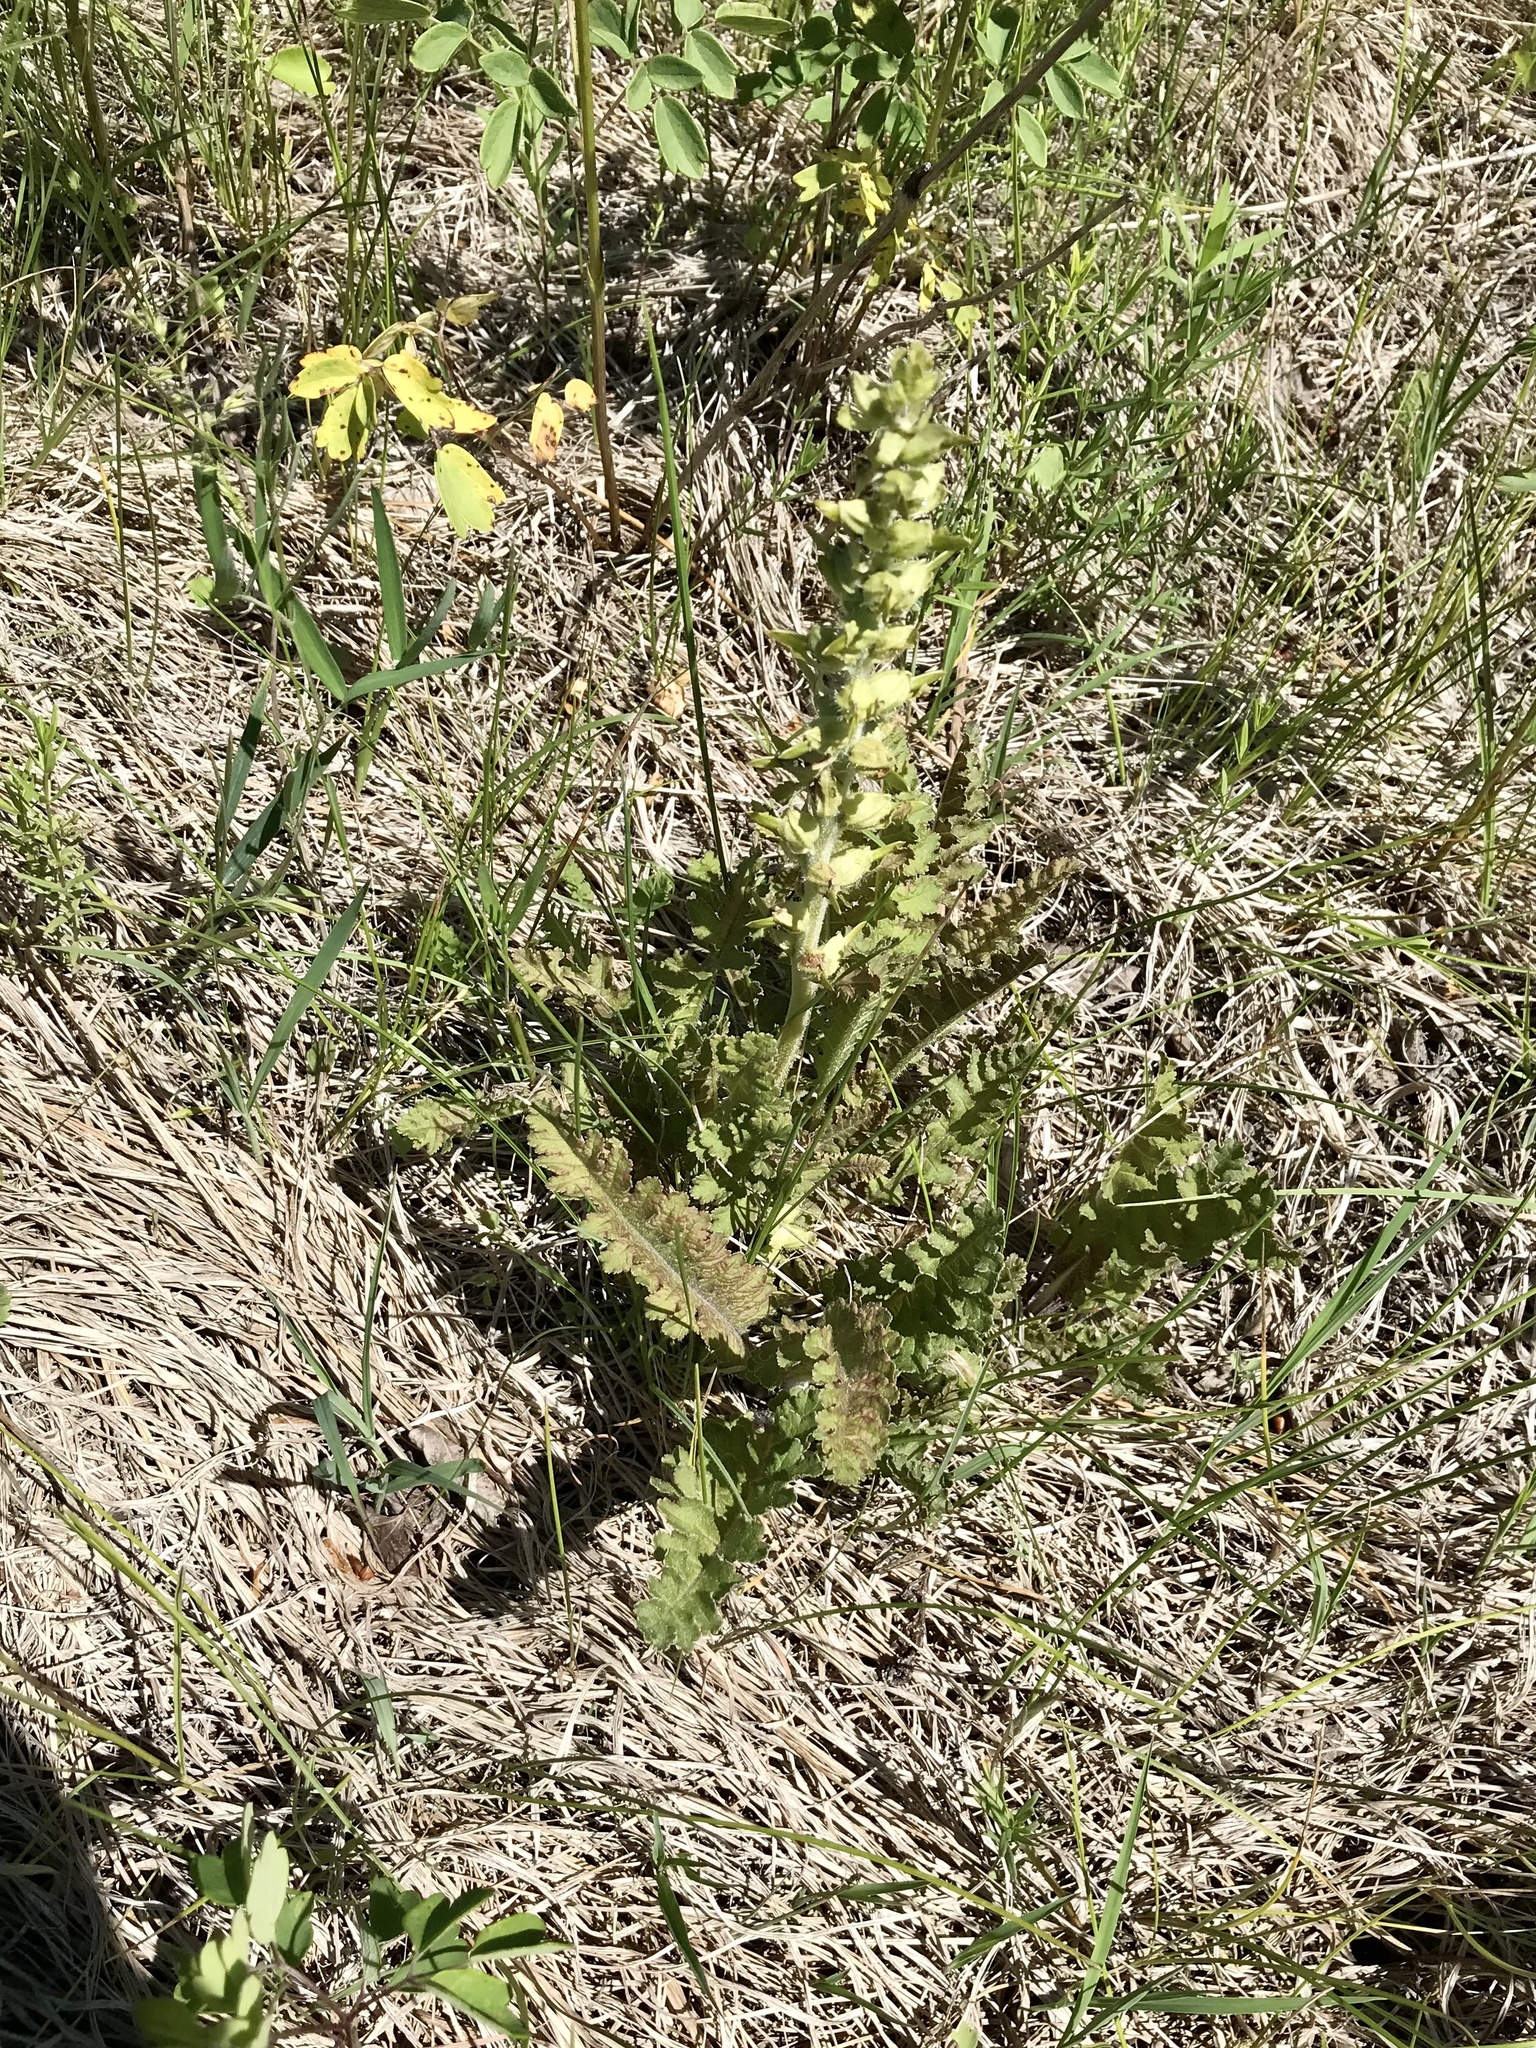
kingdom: Plantae
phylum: Tracheophyta
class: Magnoliopsida
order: Lamiales
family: Orobanchaceae
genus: Pedicularis
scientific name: Pedicularis canadensis
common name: Early lousewort
